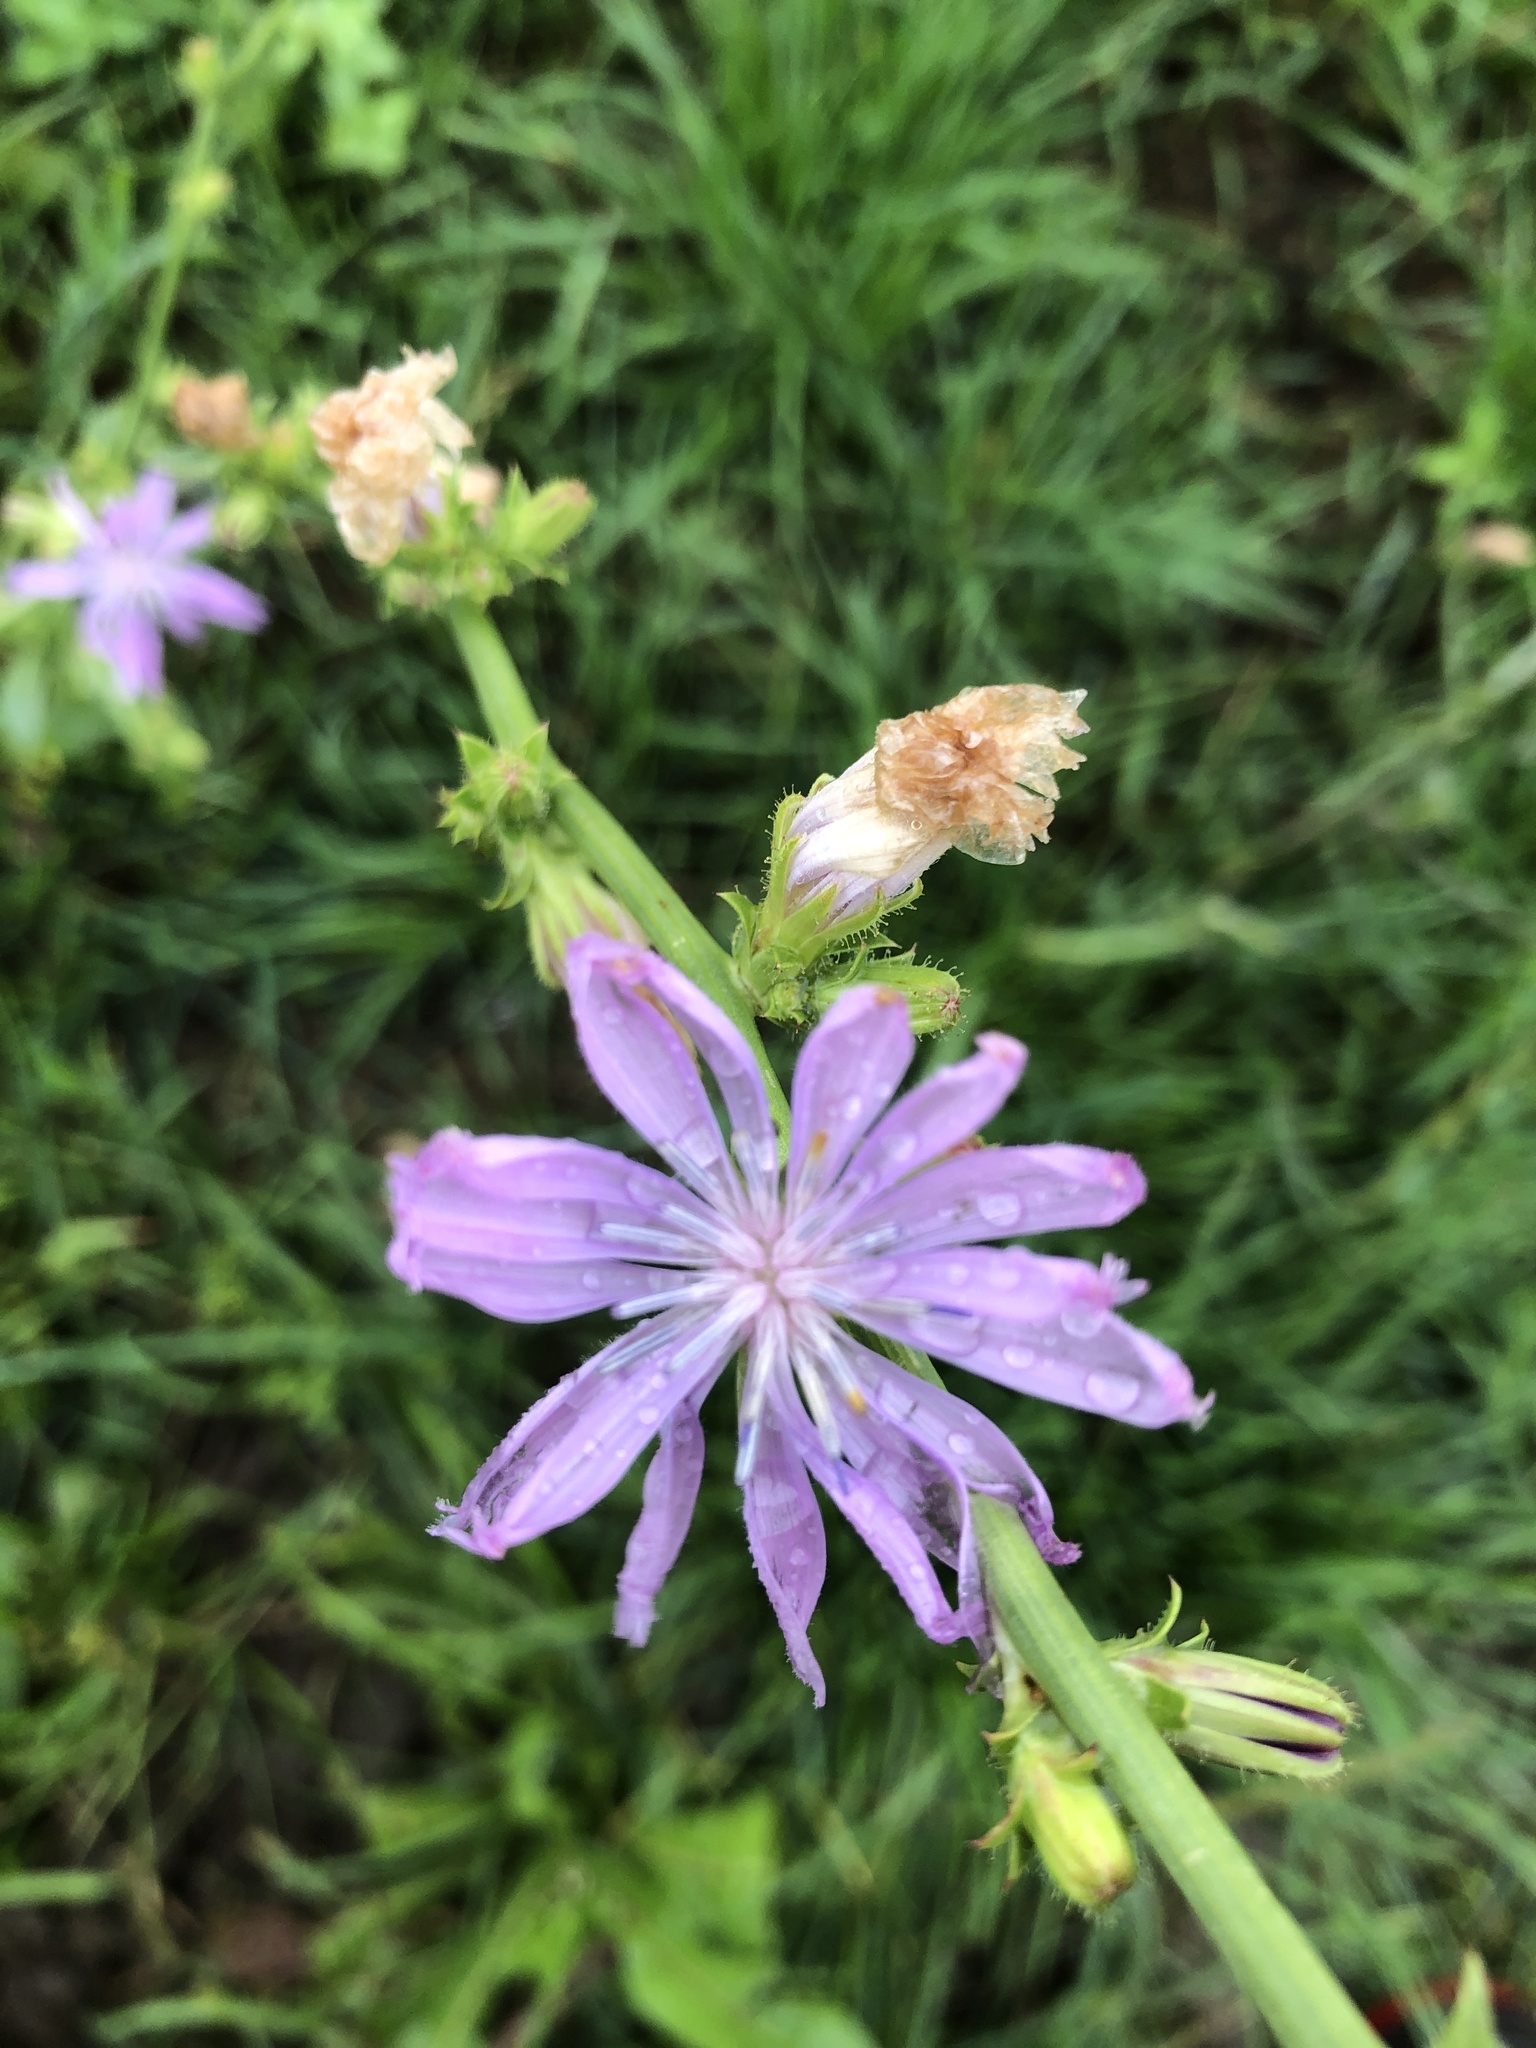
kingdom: Plantae
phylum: Tracheophyta
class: Magnoliopsida
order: Asterales
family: Asteraceae
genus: Cichorium
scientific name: Cichorium intybus
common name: Chicory
